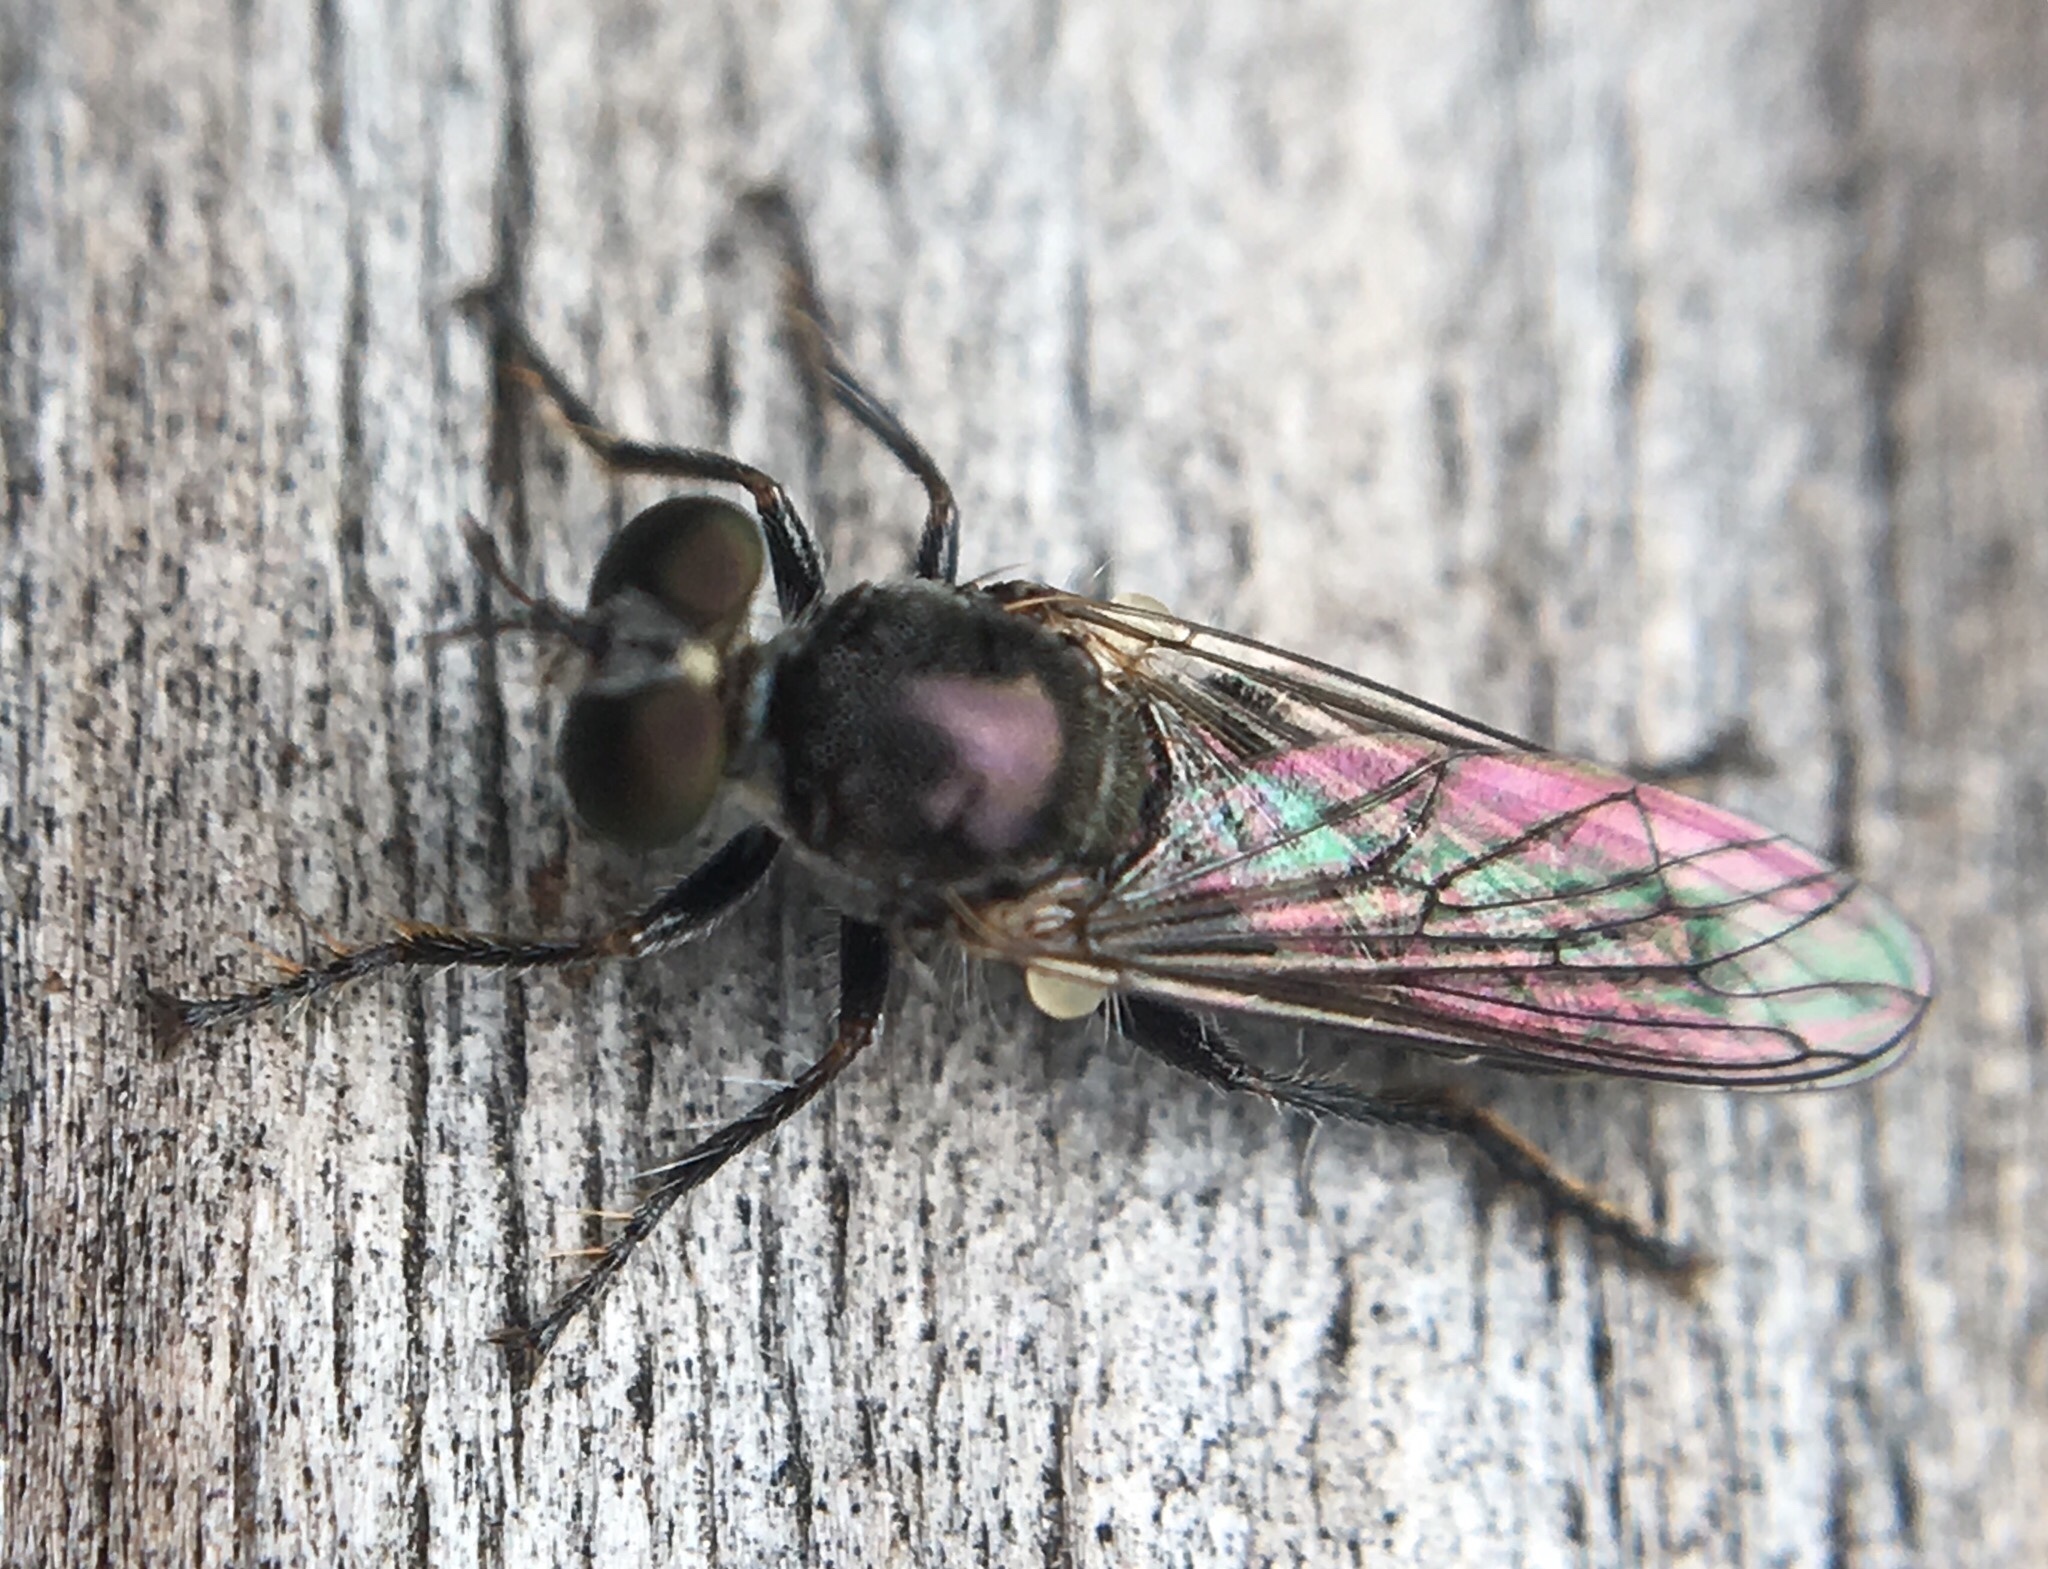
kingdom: Animalia
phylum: Arthropoda
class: Insecta
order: Diptera
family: Asilidae
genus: Atomosia
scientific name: Atomosia puella
